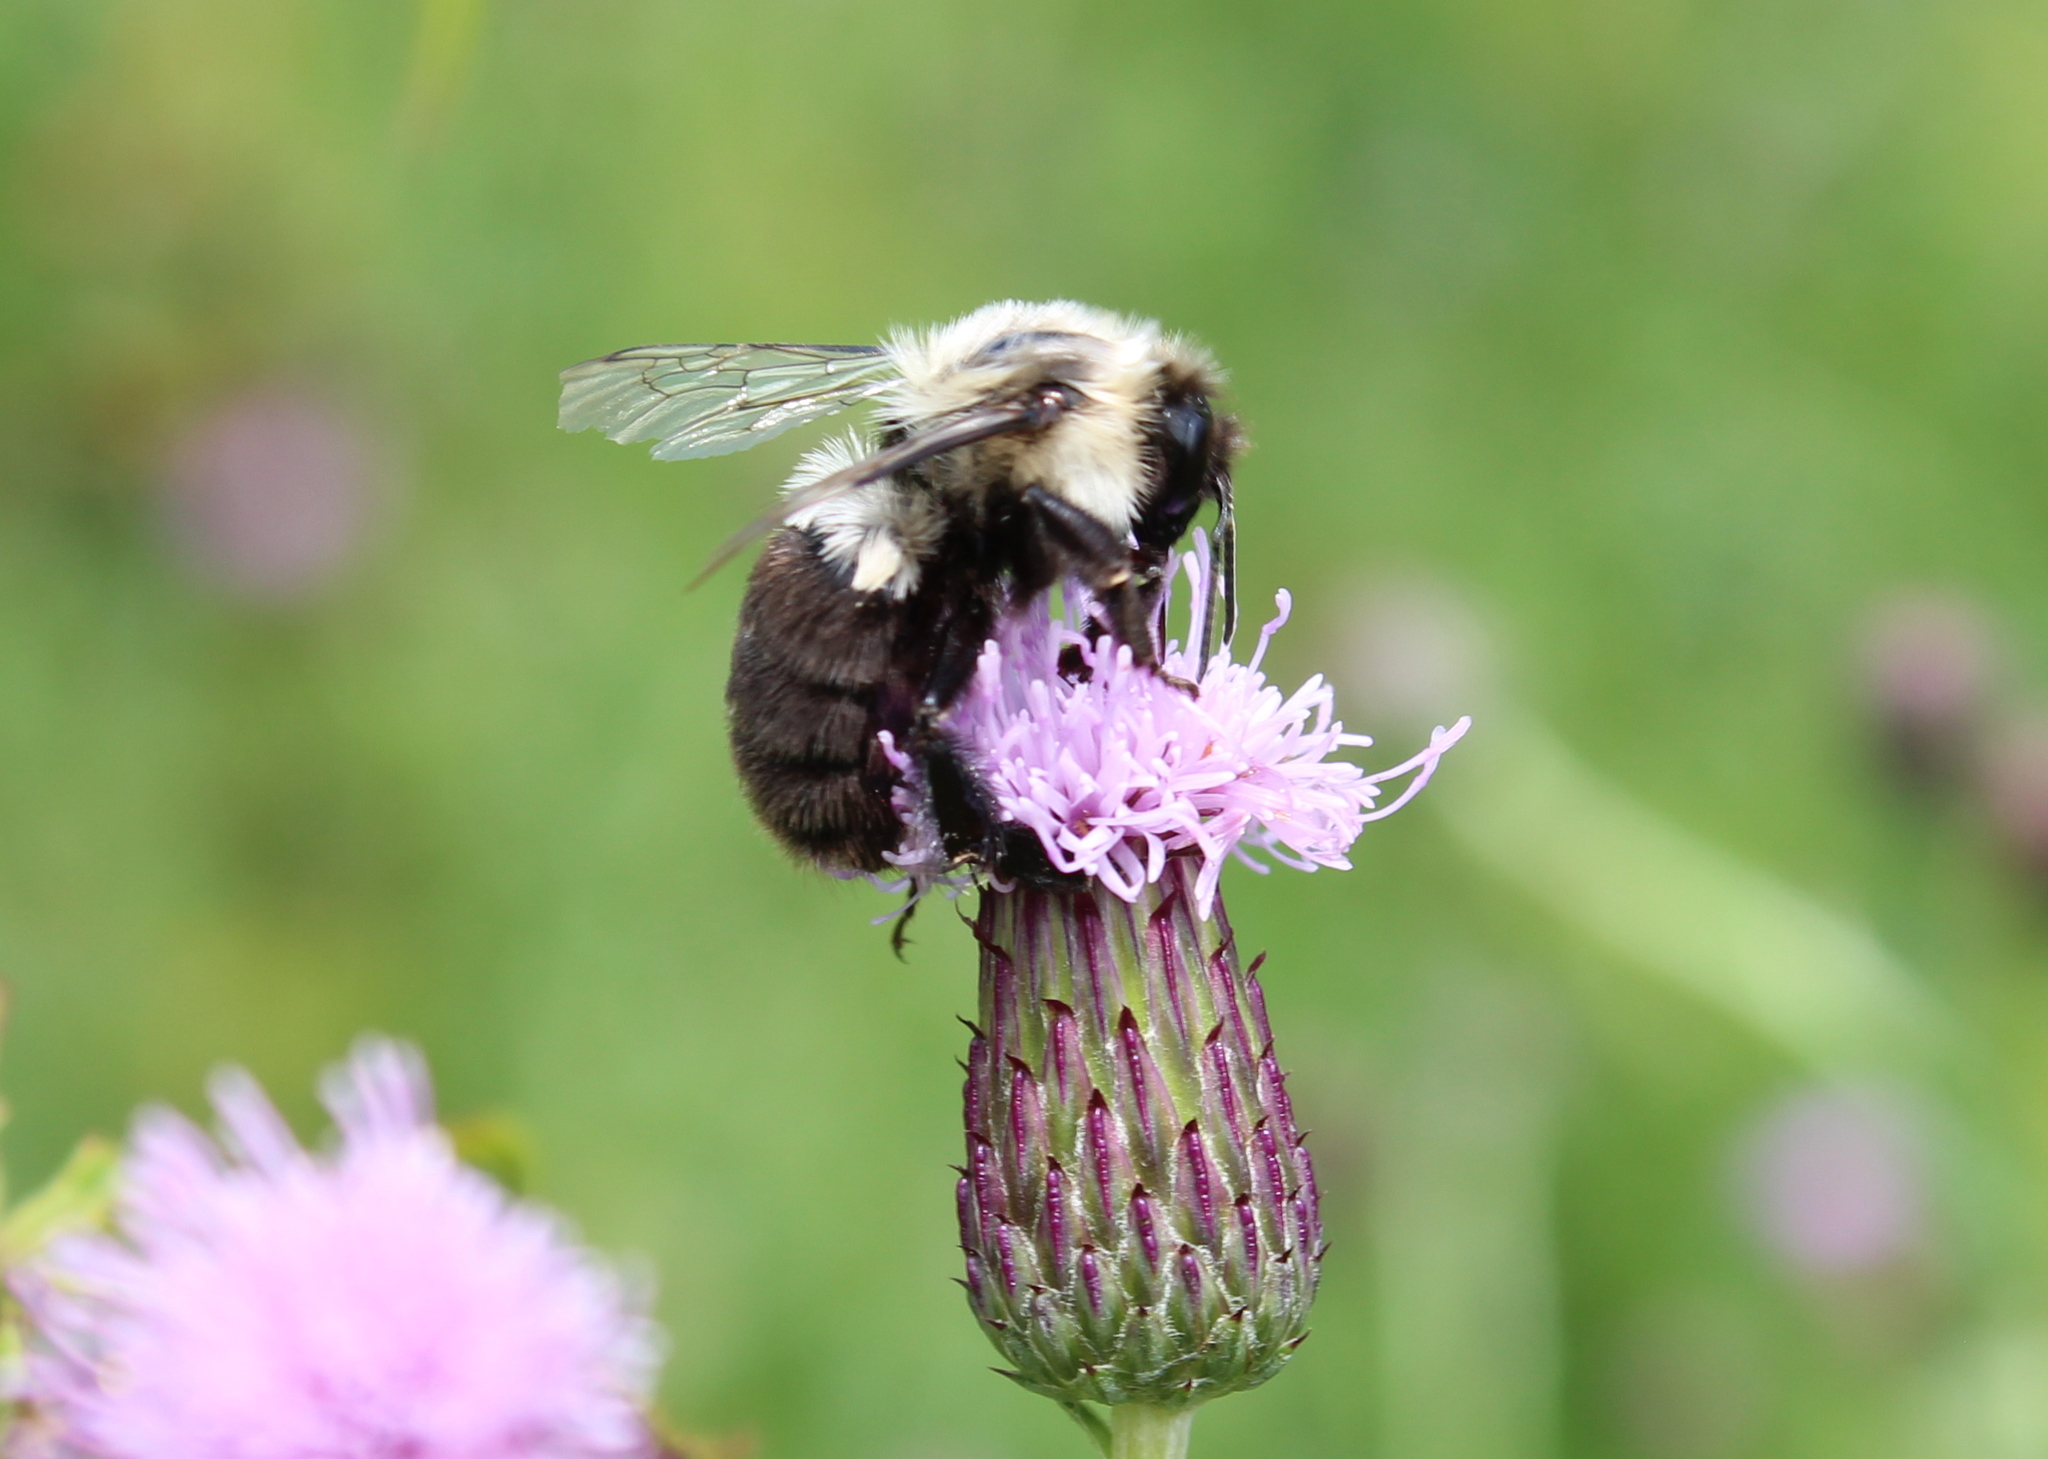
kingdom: Animalia
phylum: Arthropoda
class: Insecta
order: Hymenoptera
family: Apidae
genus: Bombus
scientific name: Bombus impatiens
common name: Common eastern bumble bee
